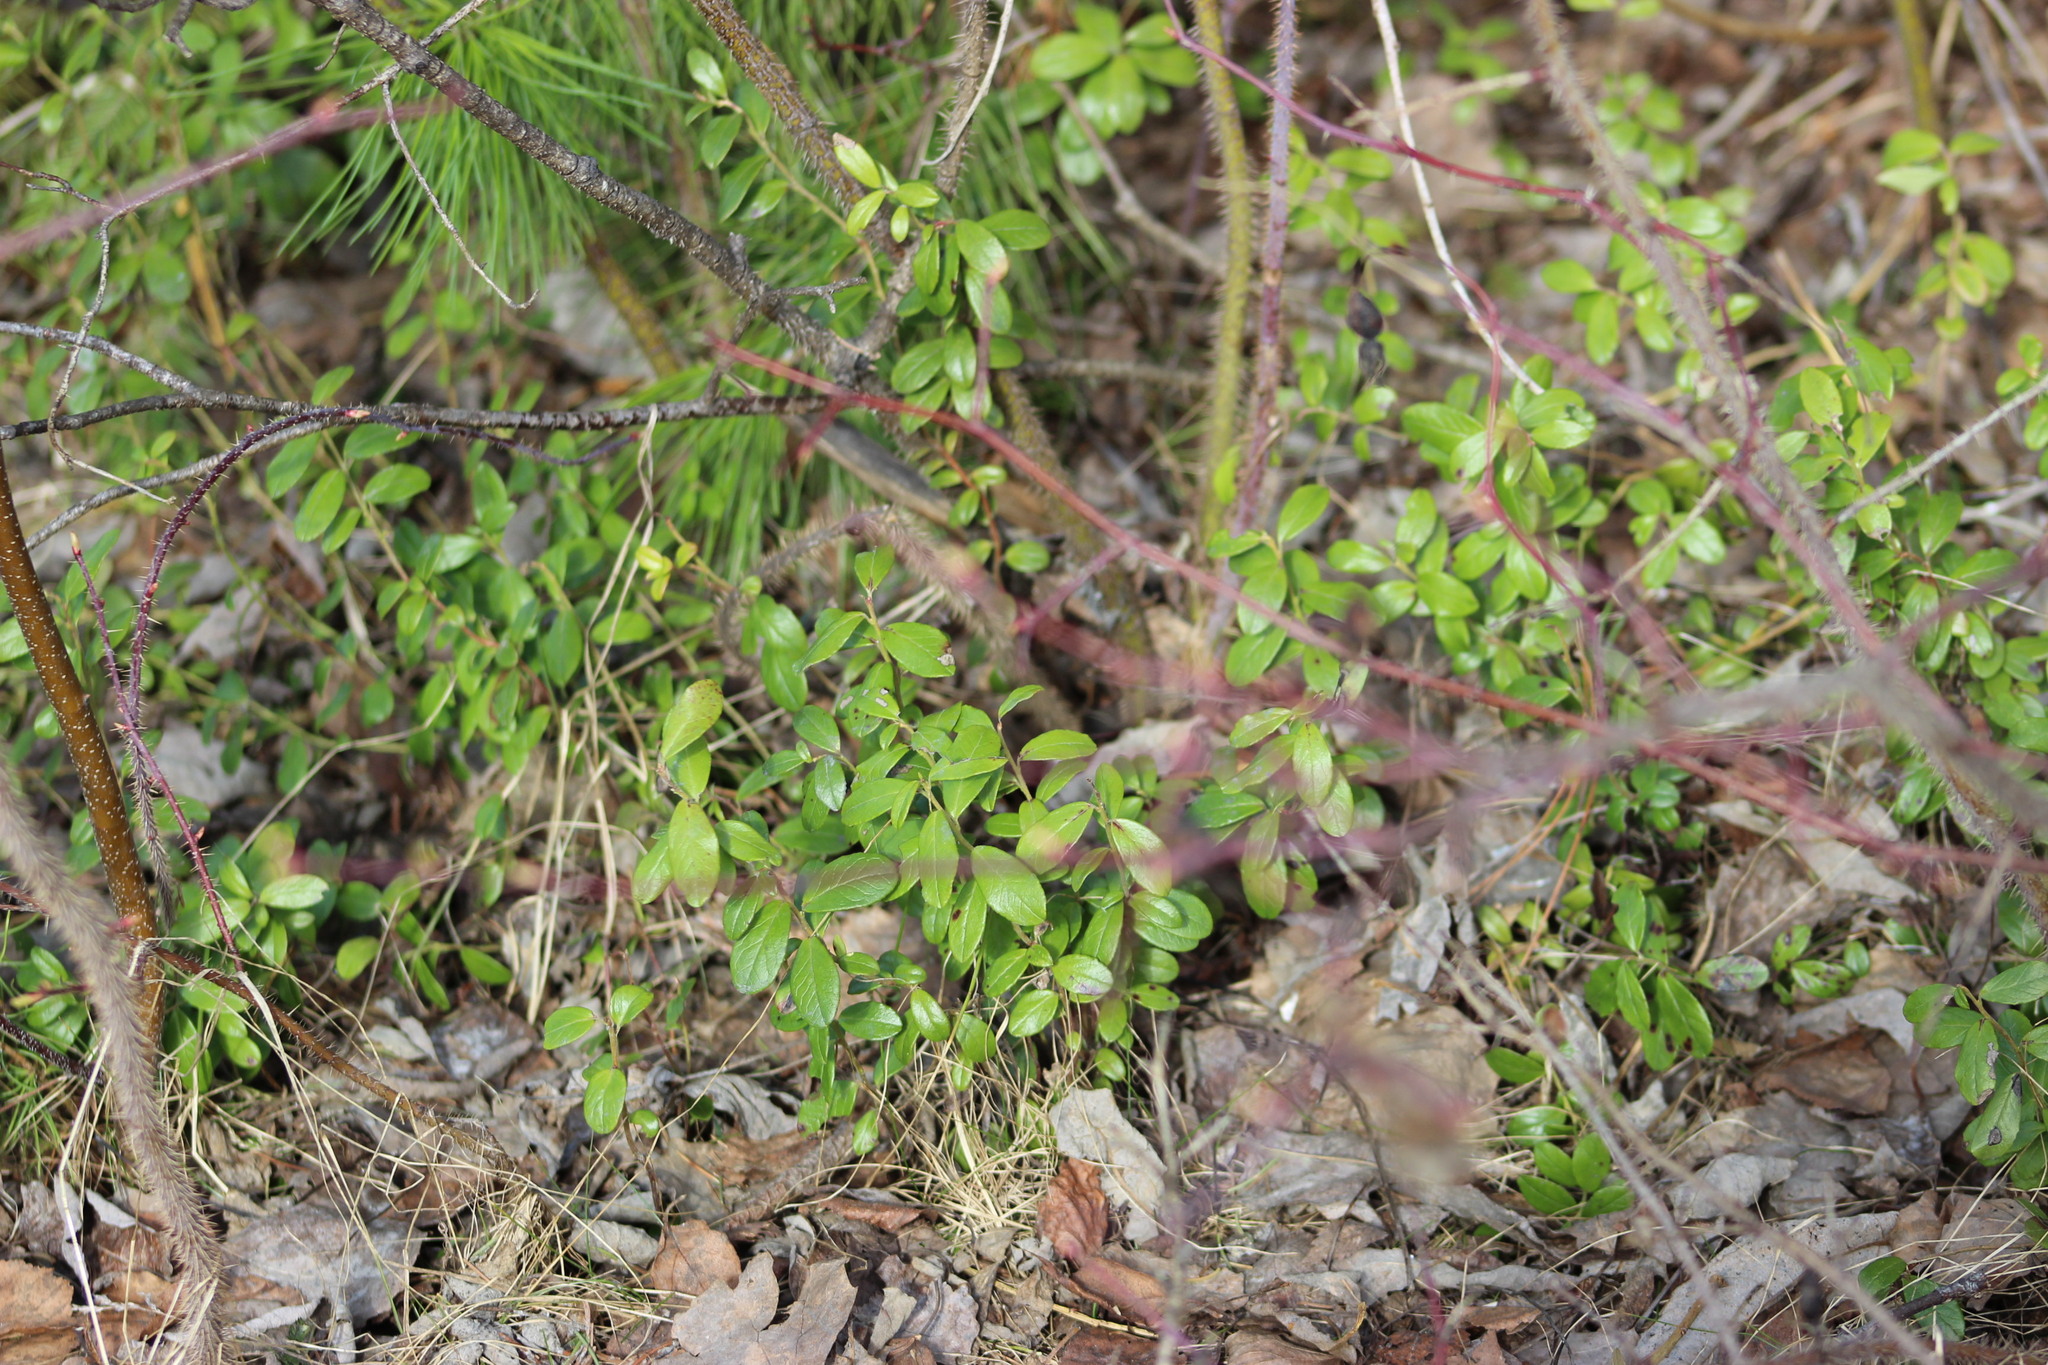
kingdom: Plantae
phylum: Tracheophyta
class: Magnoliopsida
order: Ericales
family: Ericaceae
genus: Vaccinium
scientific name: Vaccinium vitis-idaea
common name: Cowberry
